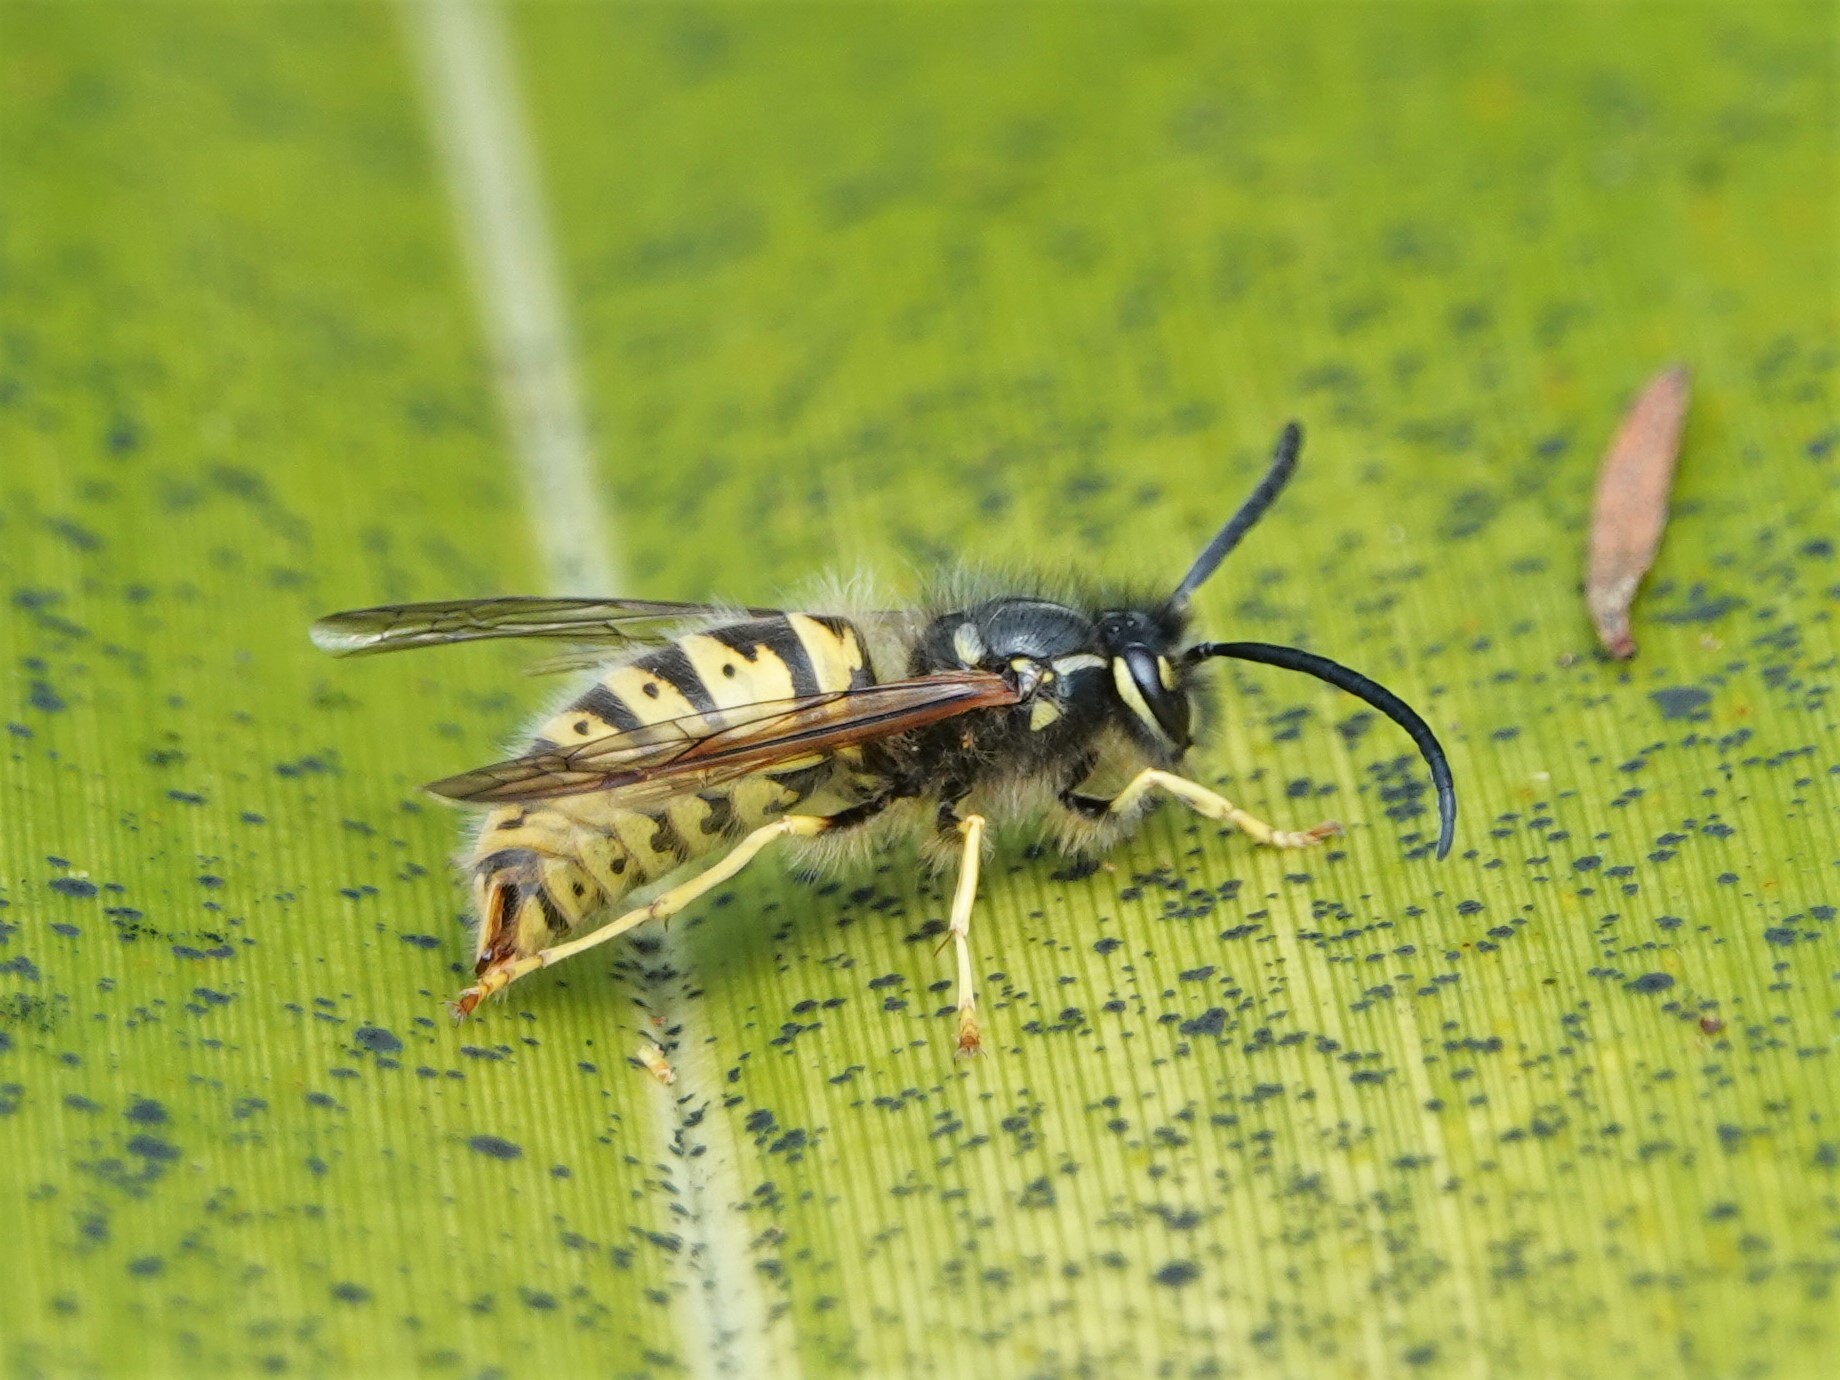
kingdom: Animalia
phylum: Arthropoda
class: Insecta
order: Hymenoptera
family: Vespidae
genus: Vespula
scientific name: Vespula vulgaris
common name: Common wasp
